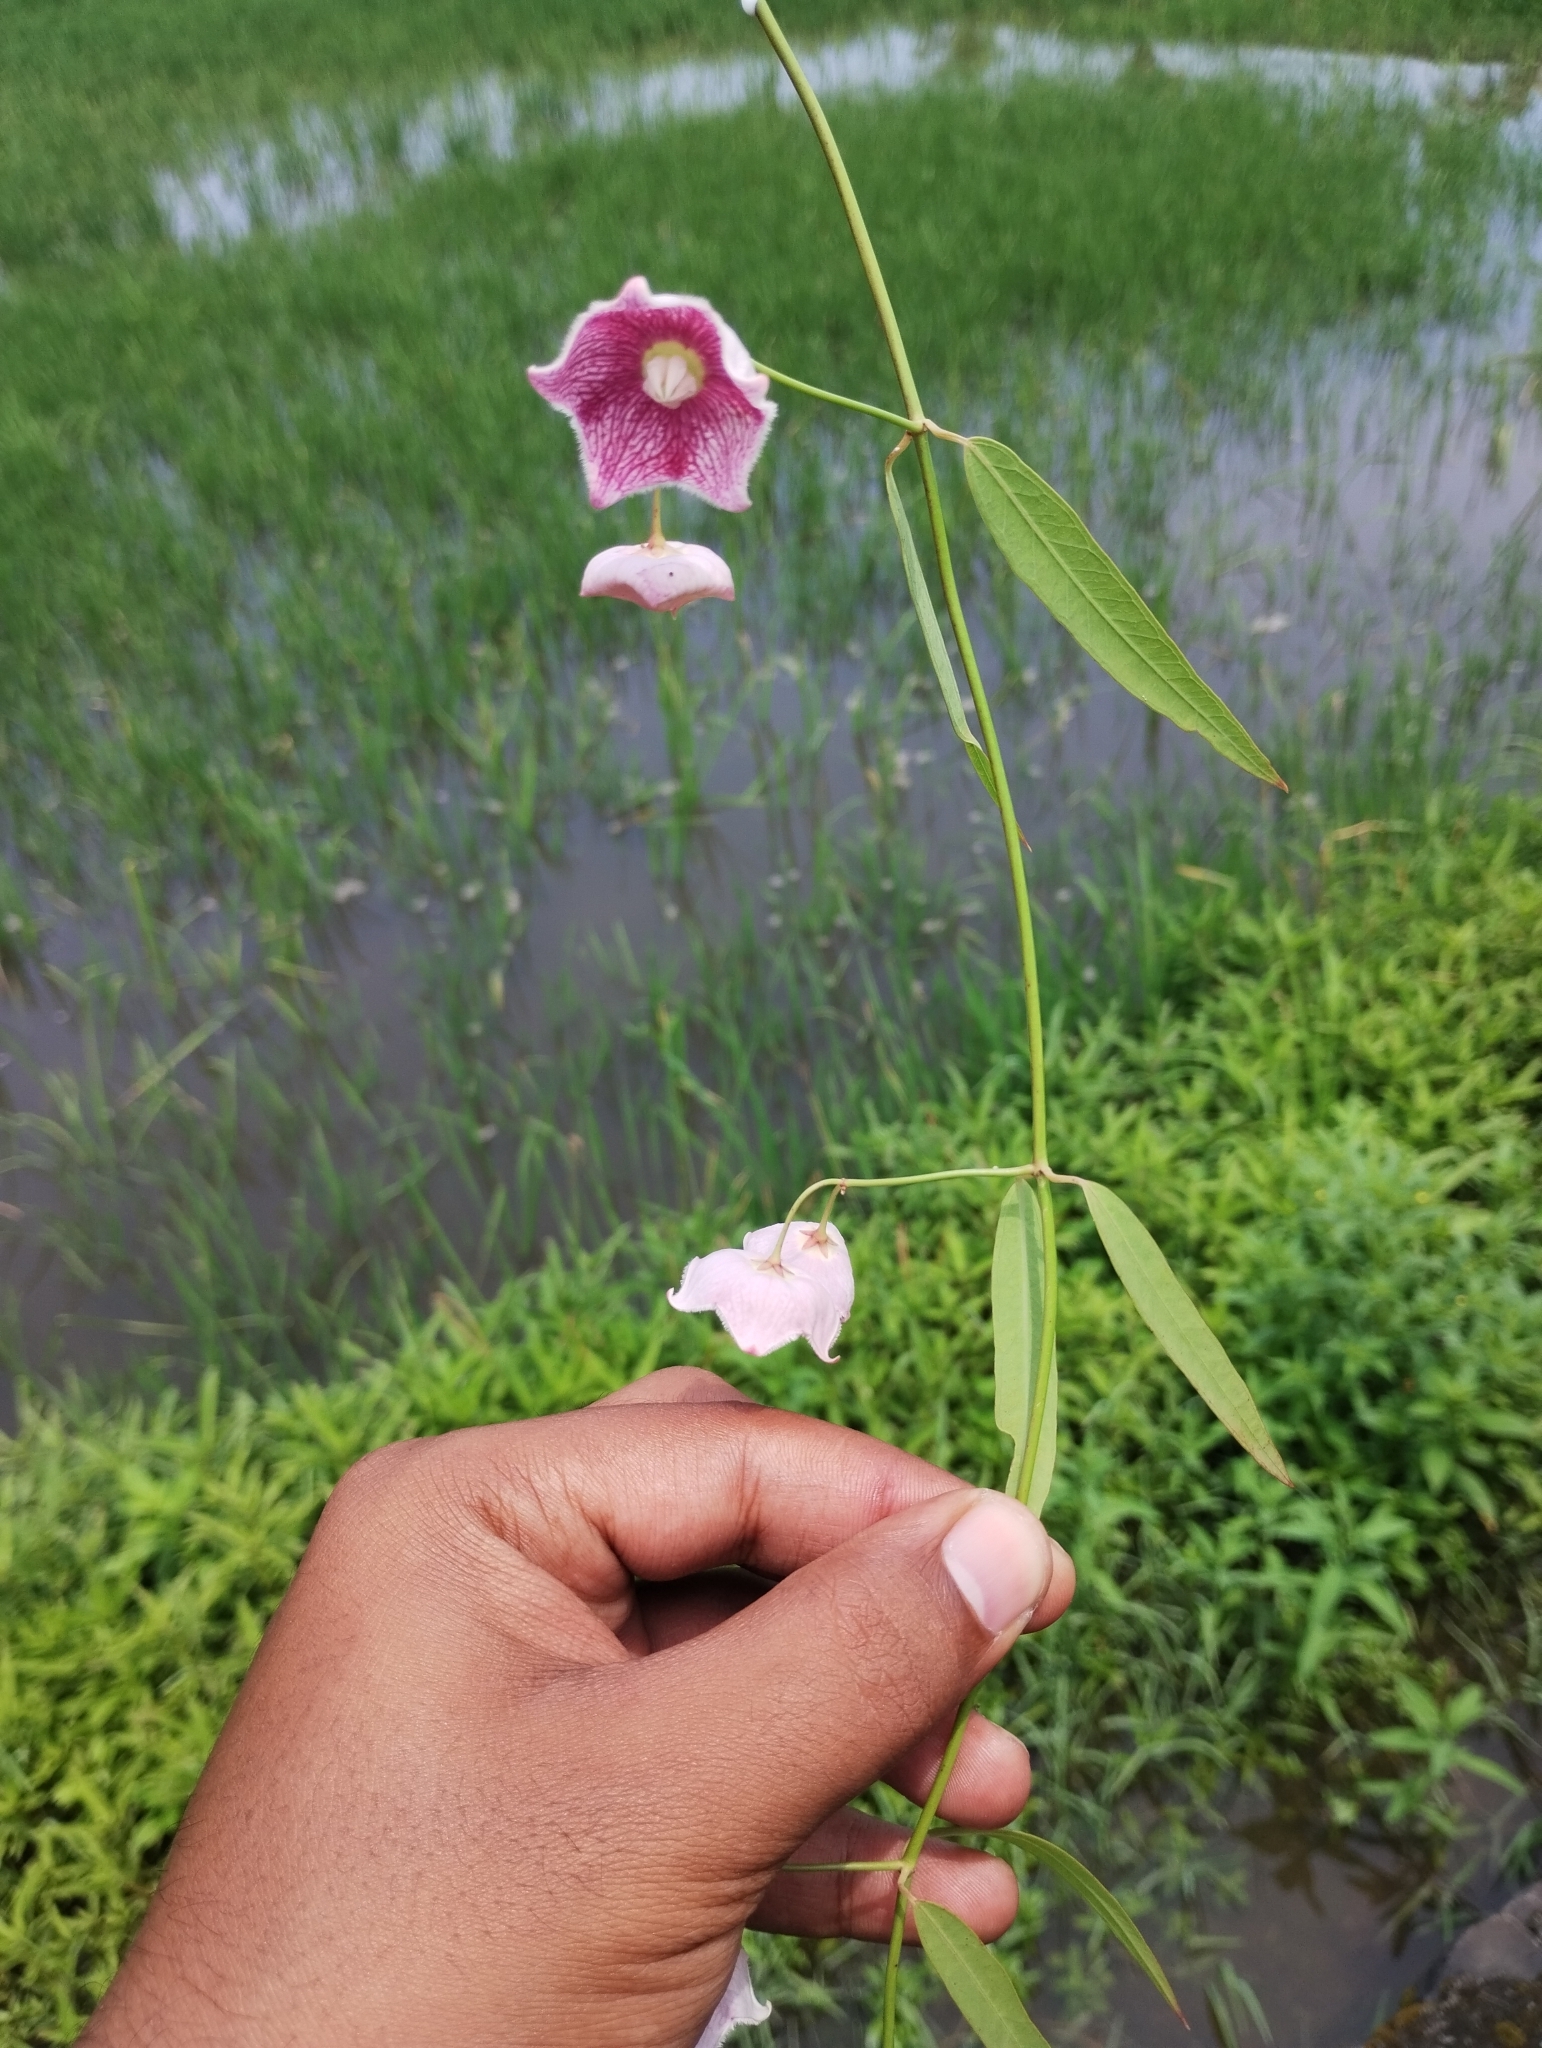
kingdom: Plantae
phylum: Tracheophyta
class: Magnoliopsida
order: Gentianales
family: Apocynaceae
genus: Oxystelma
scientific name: Oxystelma wallichii
